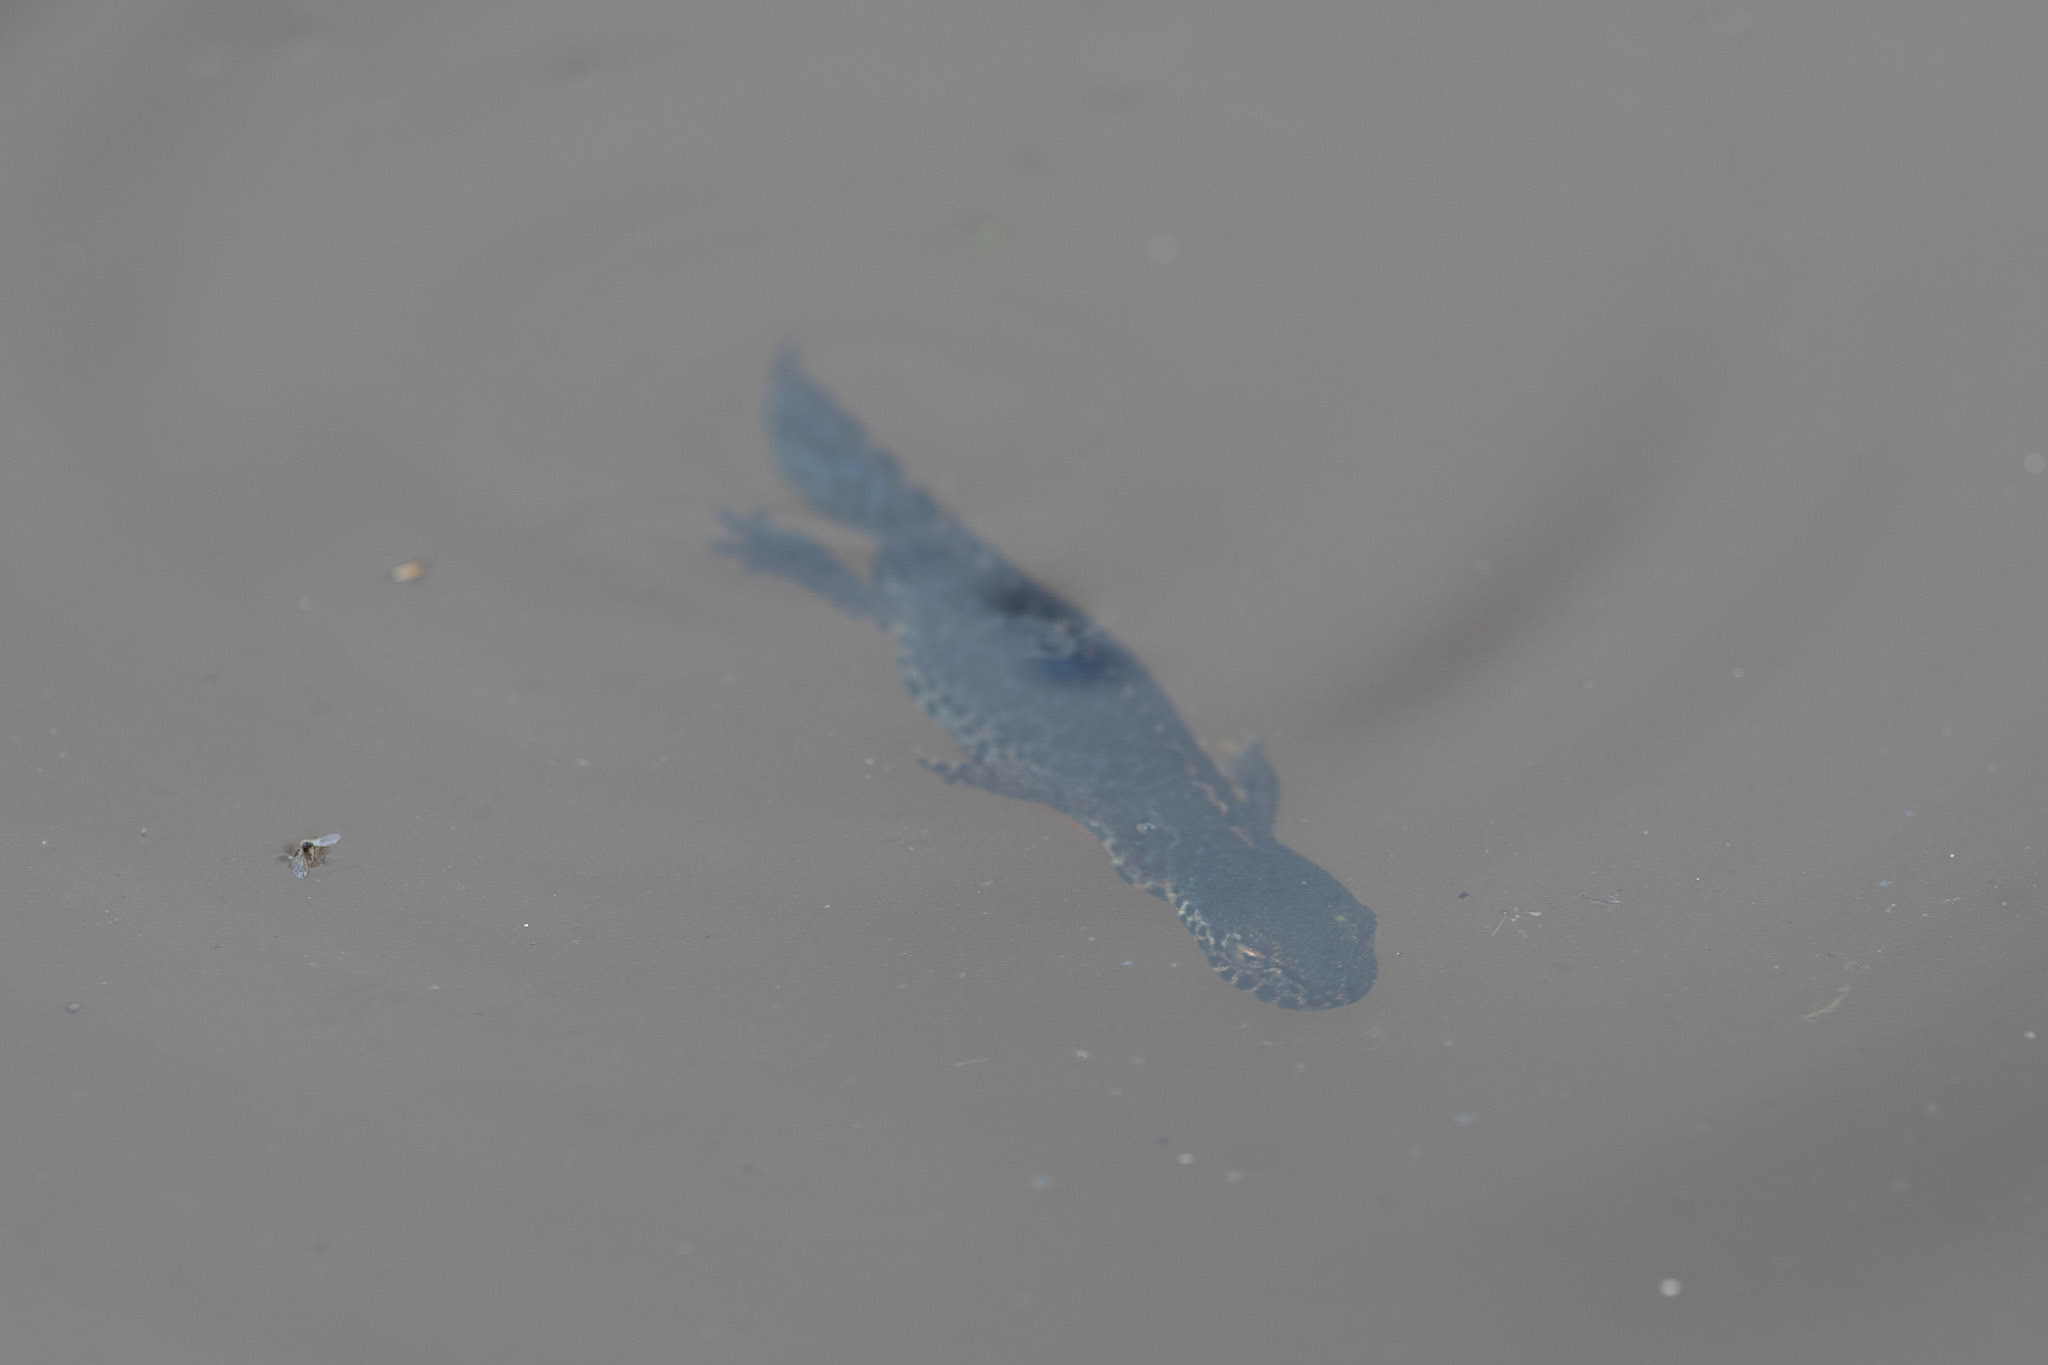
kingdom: Animalia
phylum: Chordata
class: Amphibia
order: Caudata
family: Salamandridae
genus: Ichthyosaura
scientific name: Ichthyosaura alpestris
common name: Alpine newt
